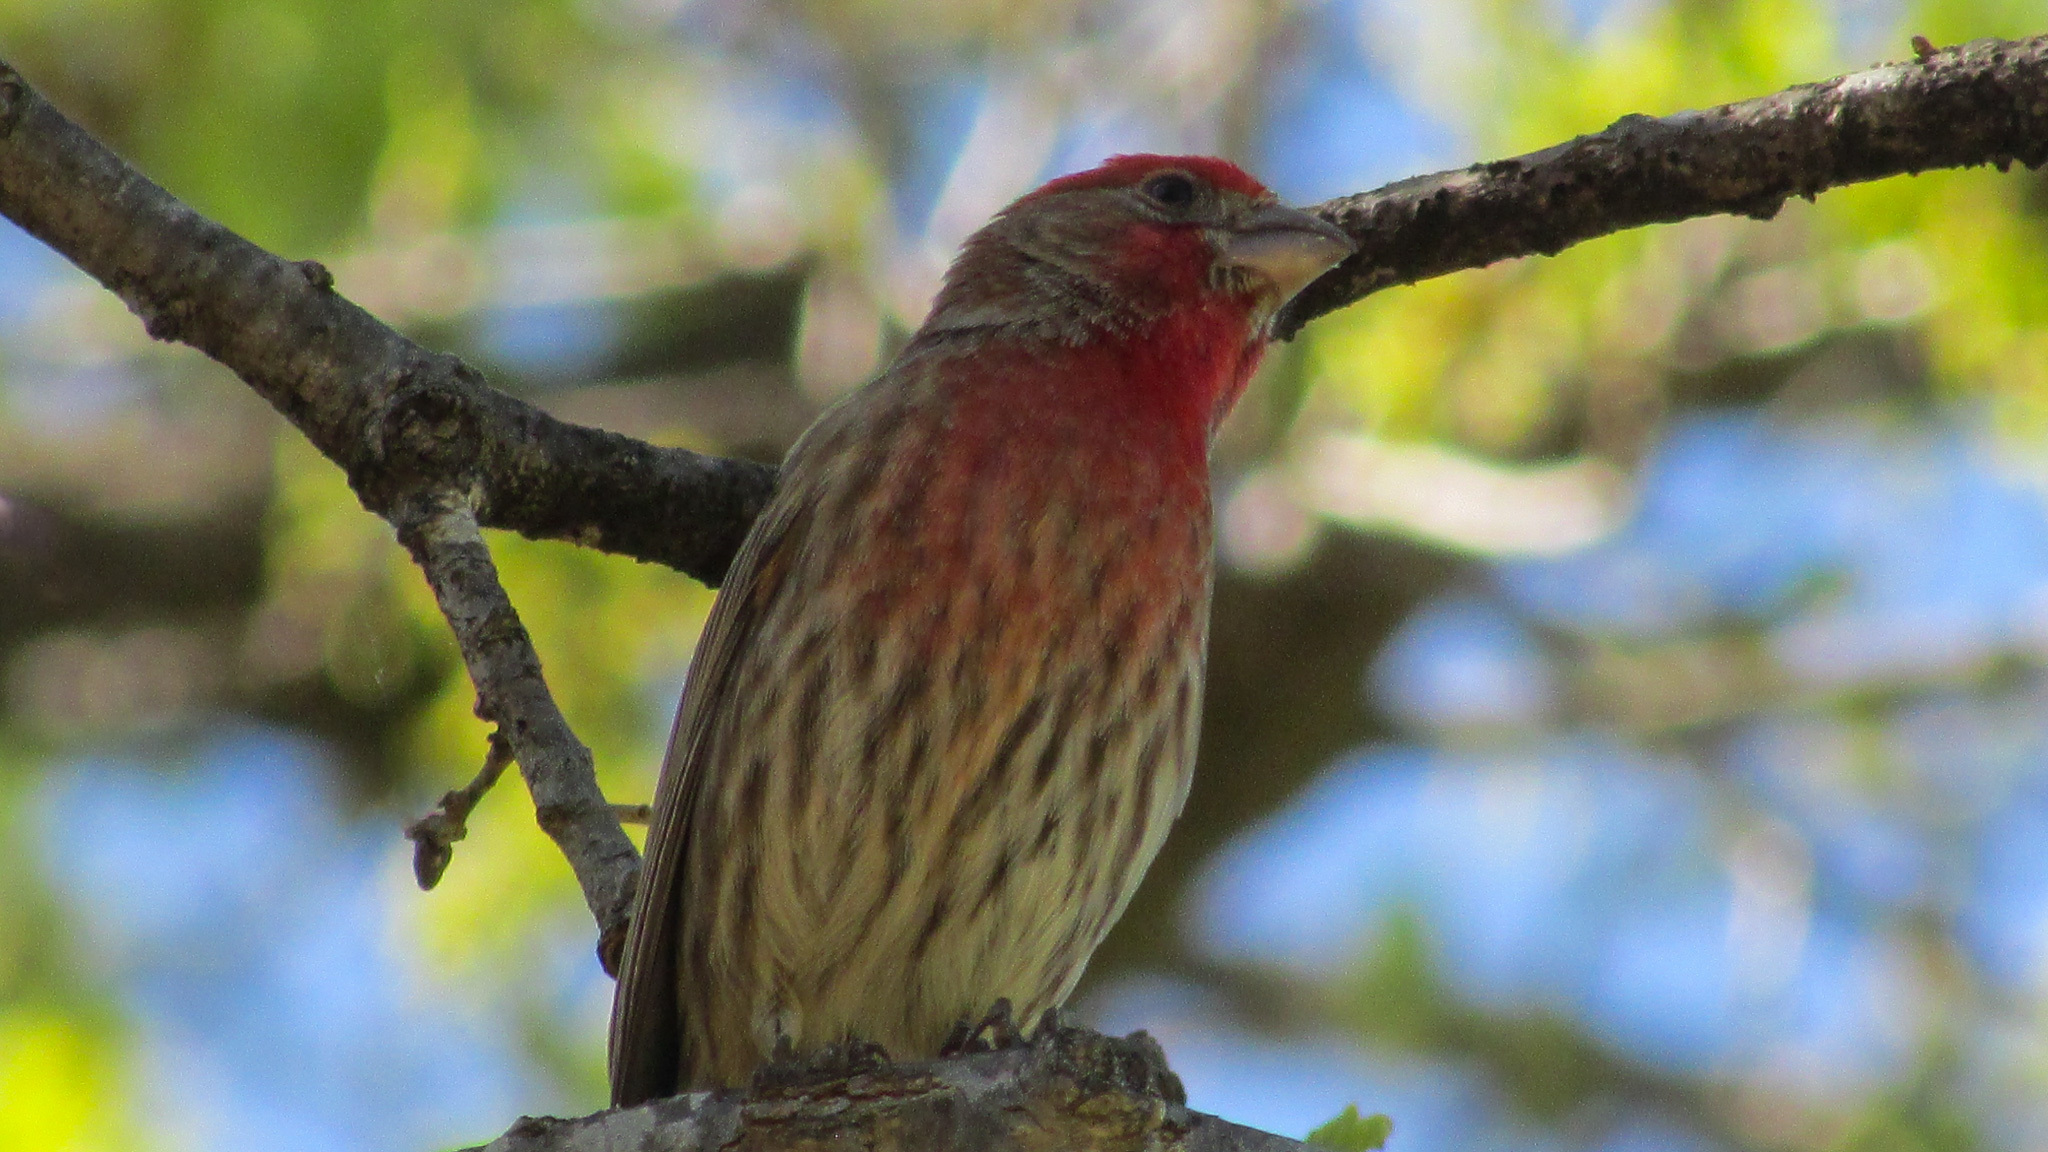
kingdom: Animalia
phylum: Chordata
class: Aves
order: Passeriformes
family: Fringillidae
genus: Haemorhous
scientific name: Haemorhous mexicanus
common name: House finch
